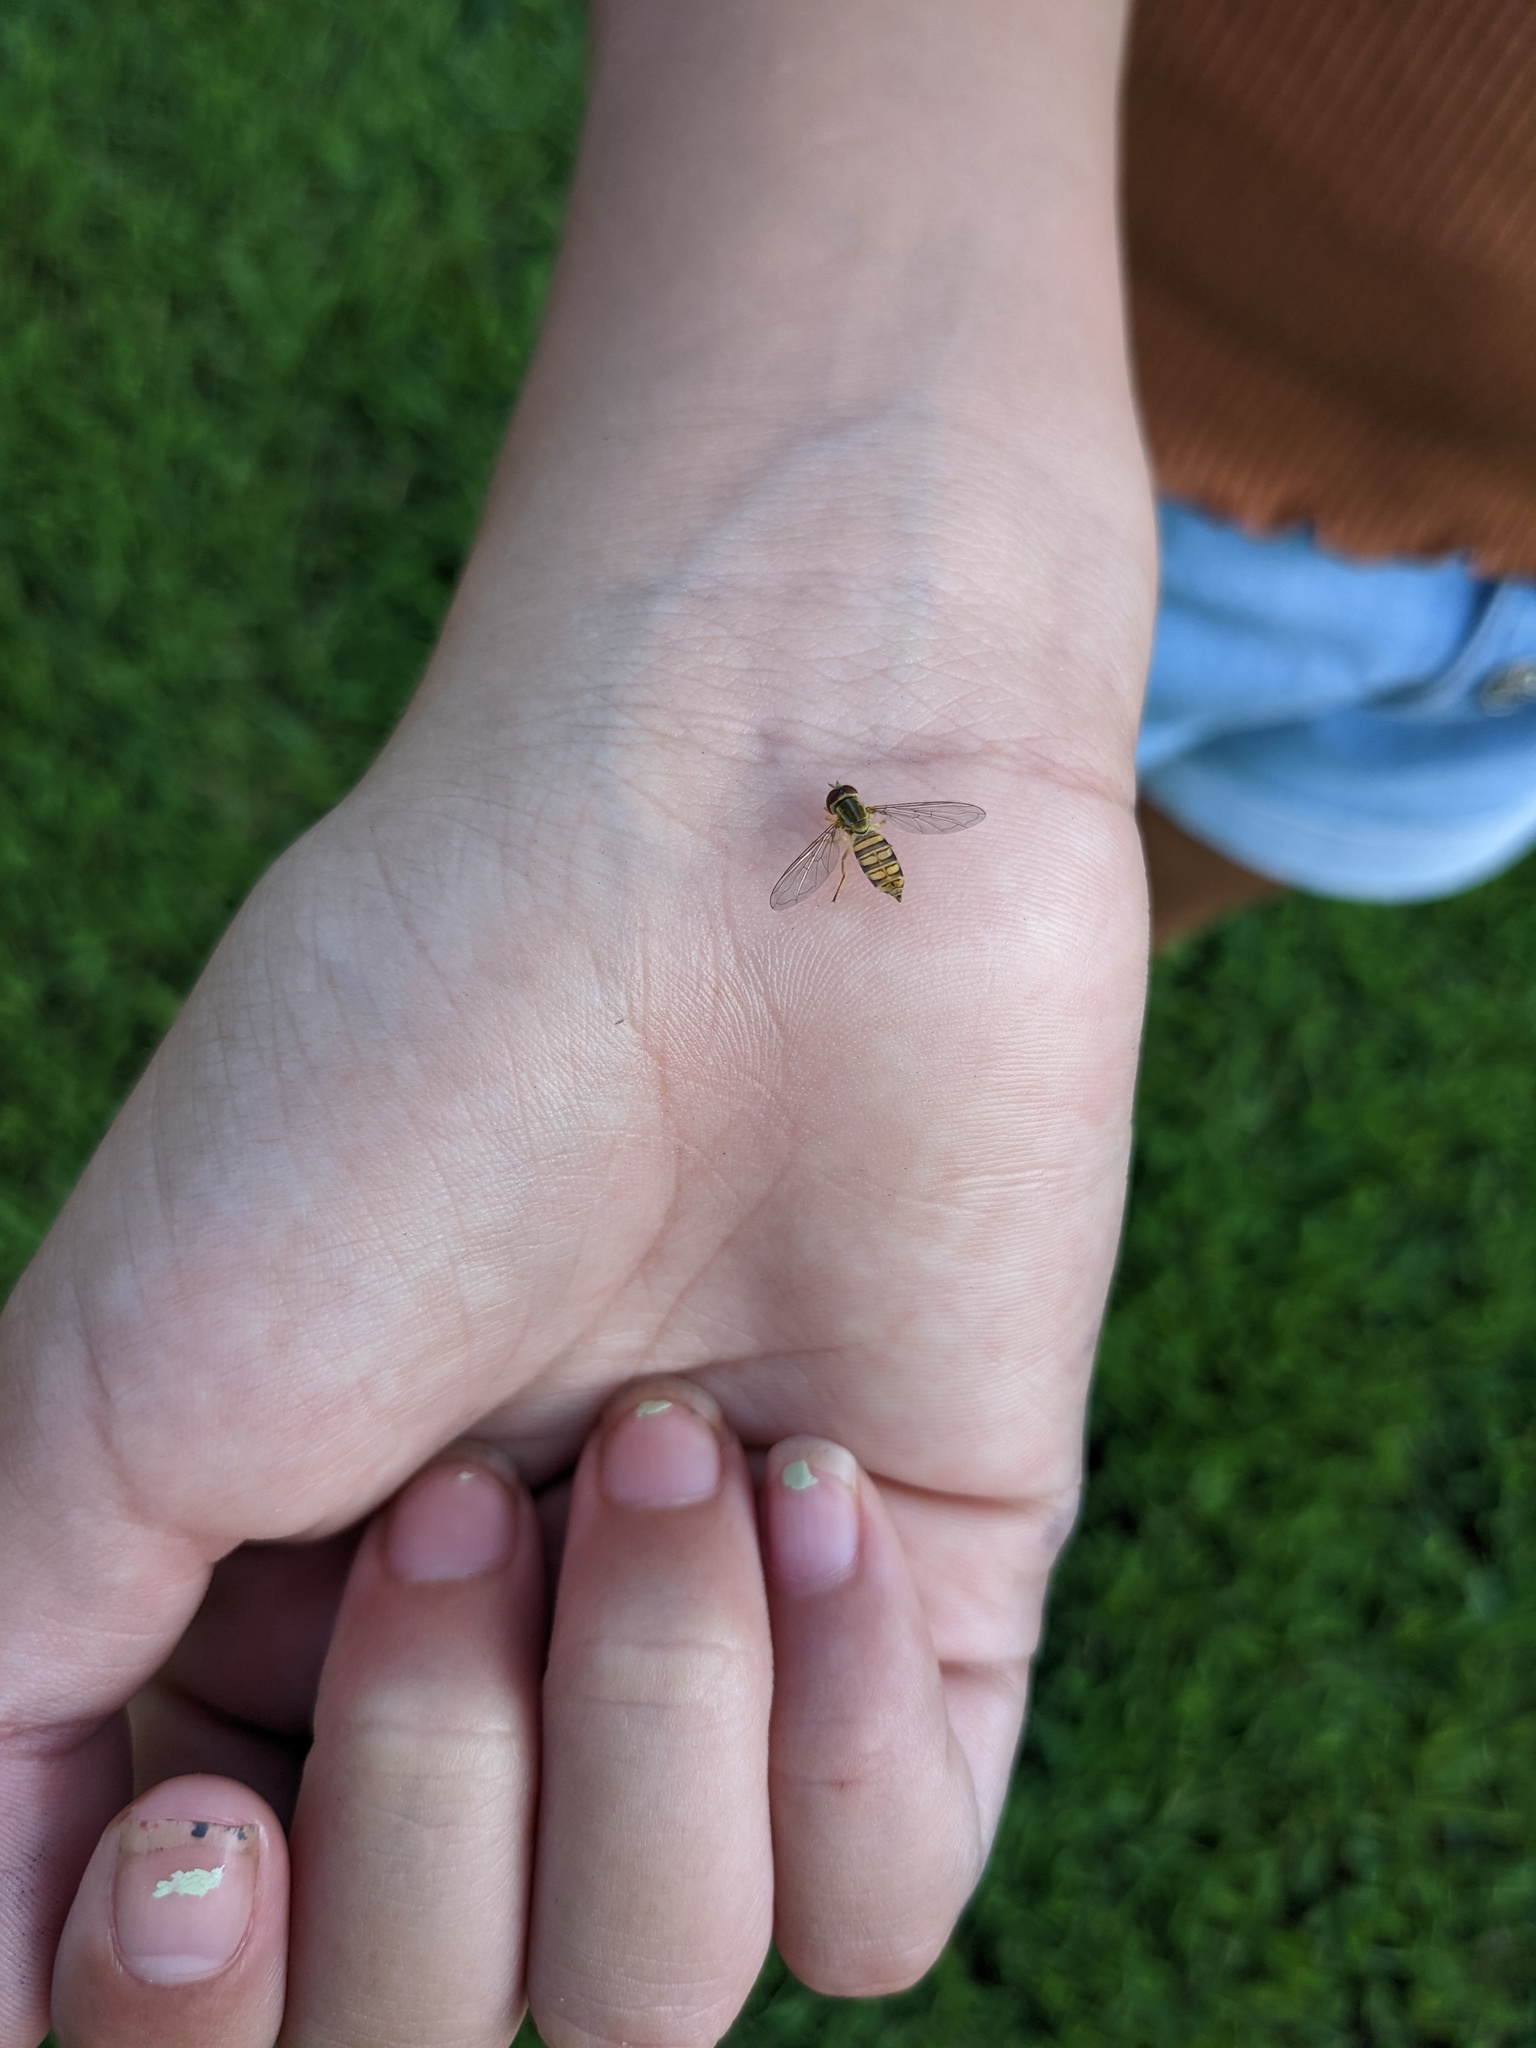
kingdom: Animalia
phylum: Arthropoda
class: Insecta
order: Diptera
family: Syrphidae
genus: Toxomerus
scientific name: Toxomerus politus
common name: Maize calligrapher
